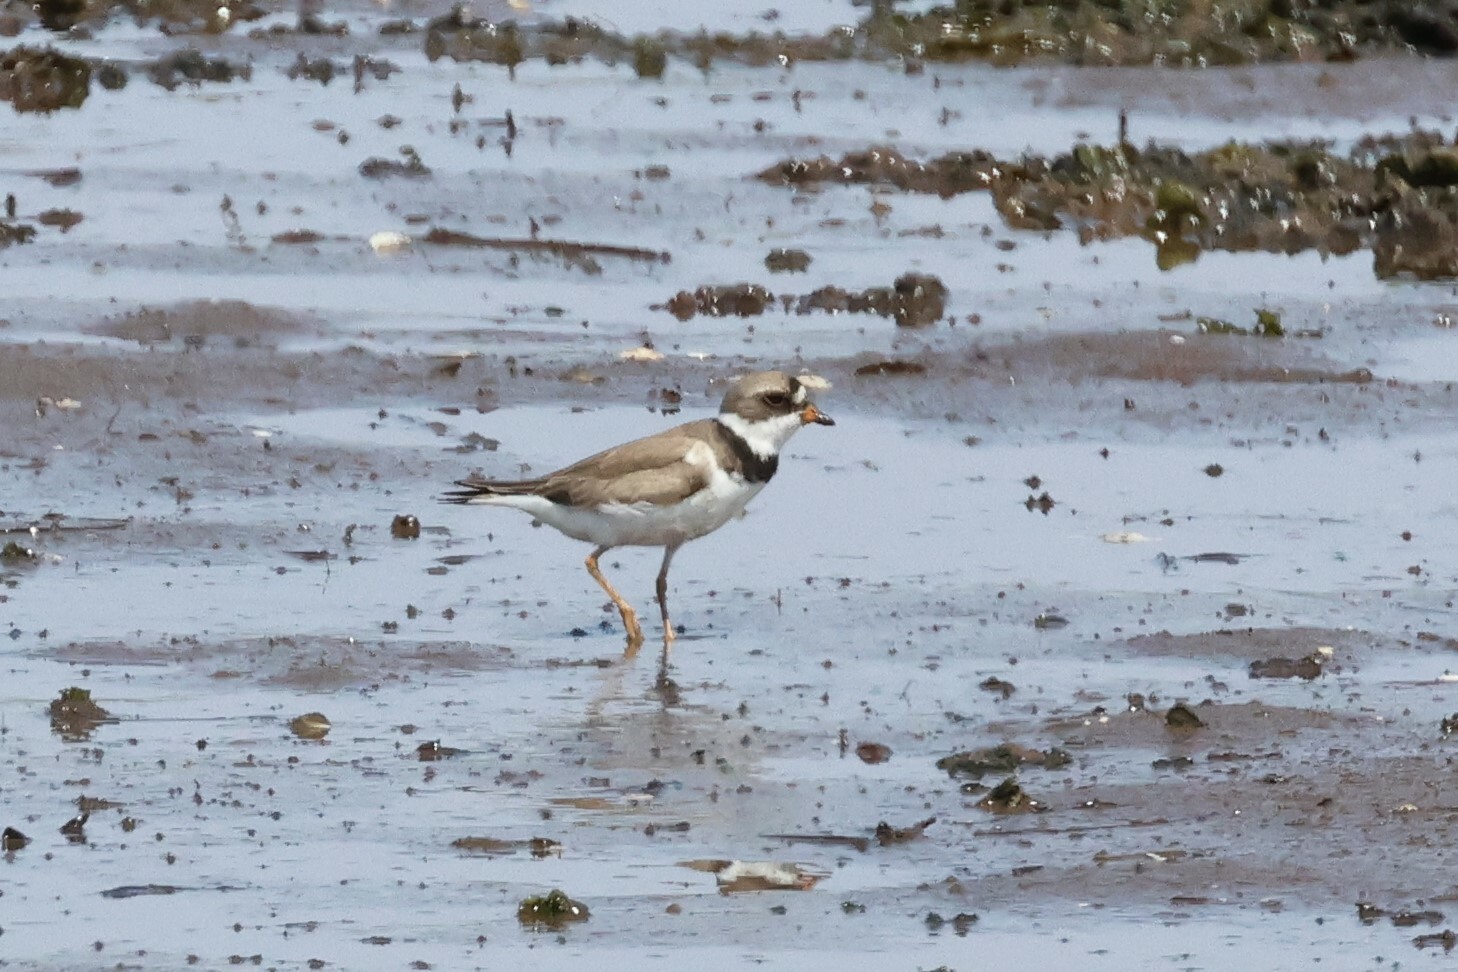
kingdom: Animalia
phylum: Chordata
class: Aves
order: Charadriiformes
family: Charadriidae
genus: Charadrius
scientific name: Charadrius semipalmatus
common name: Semipalmated plover
